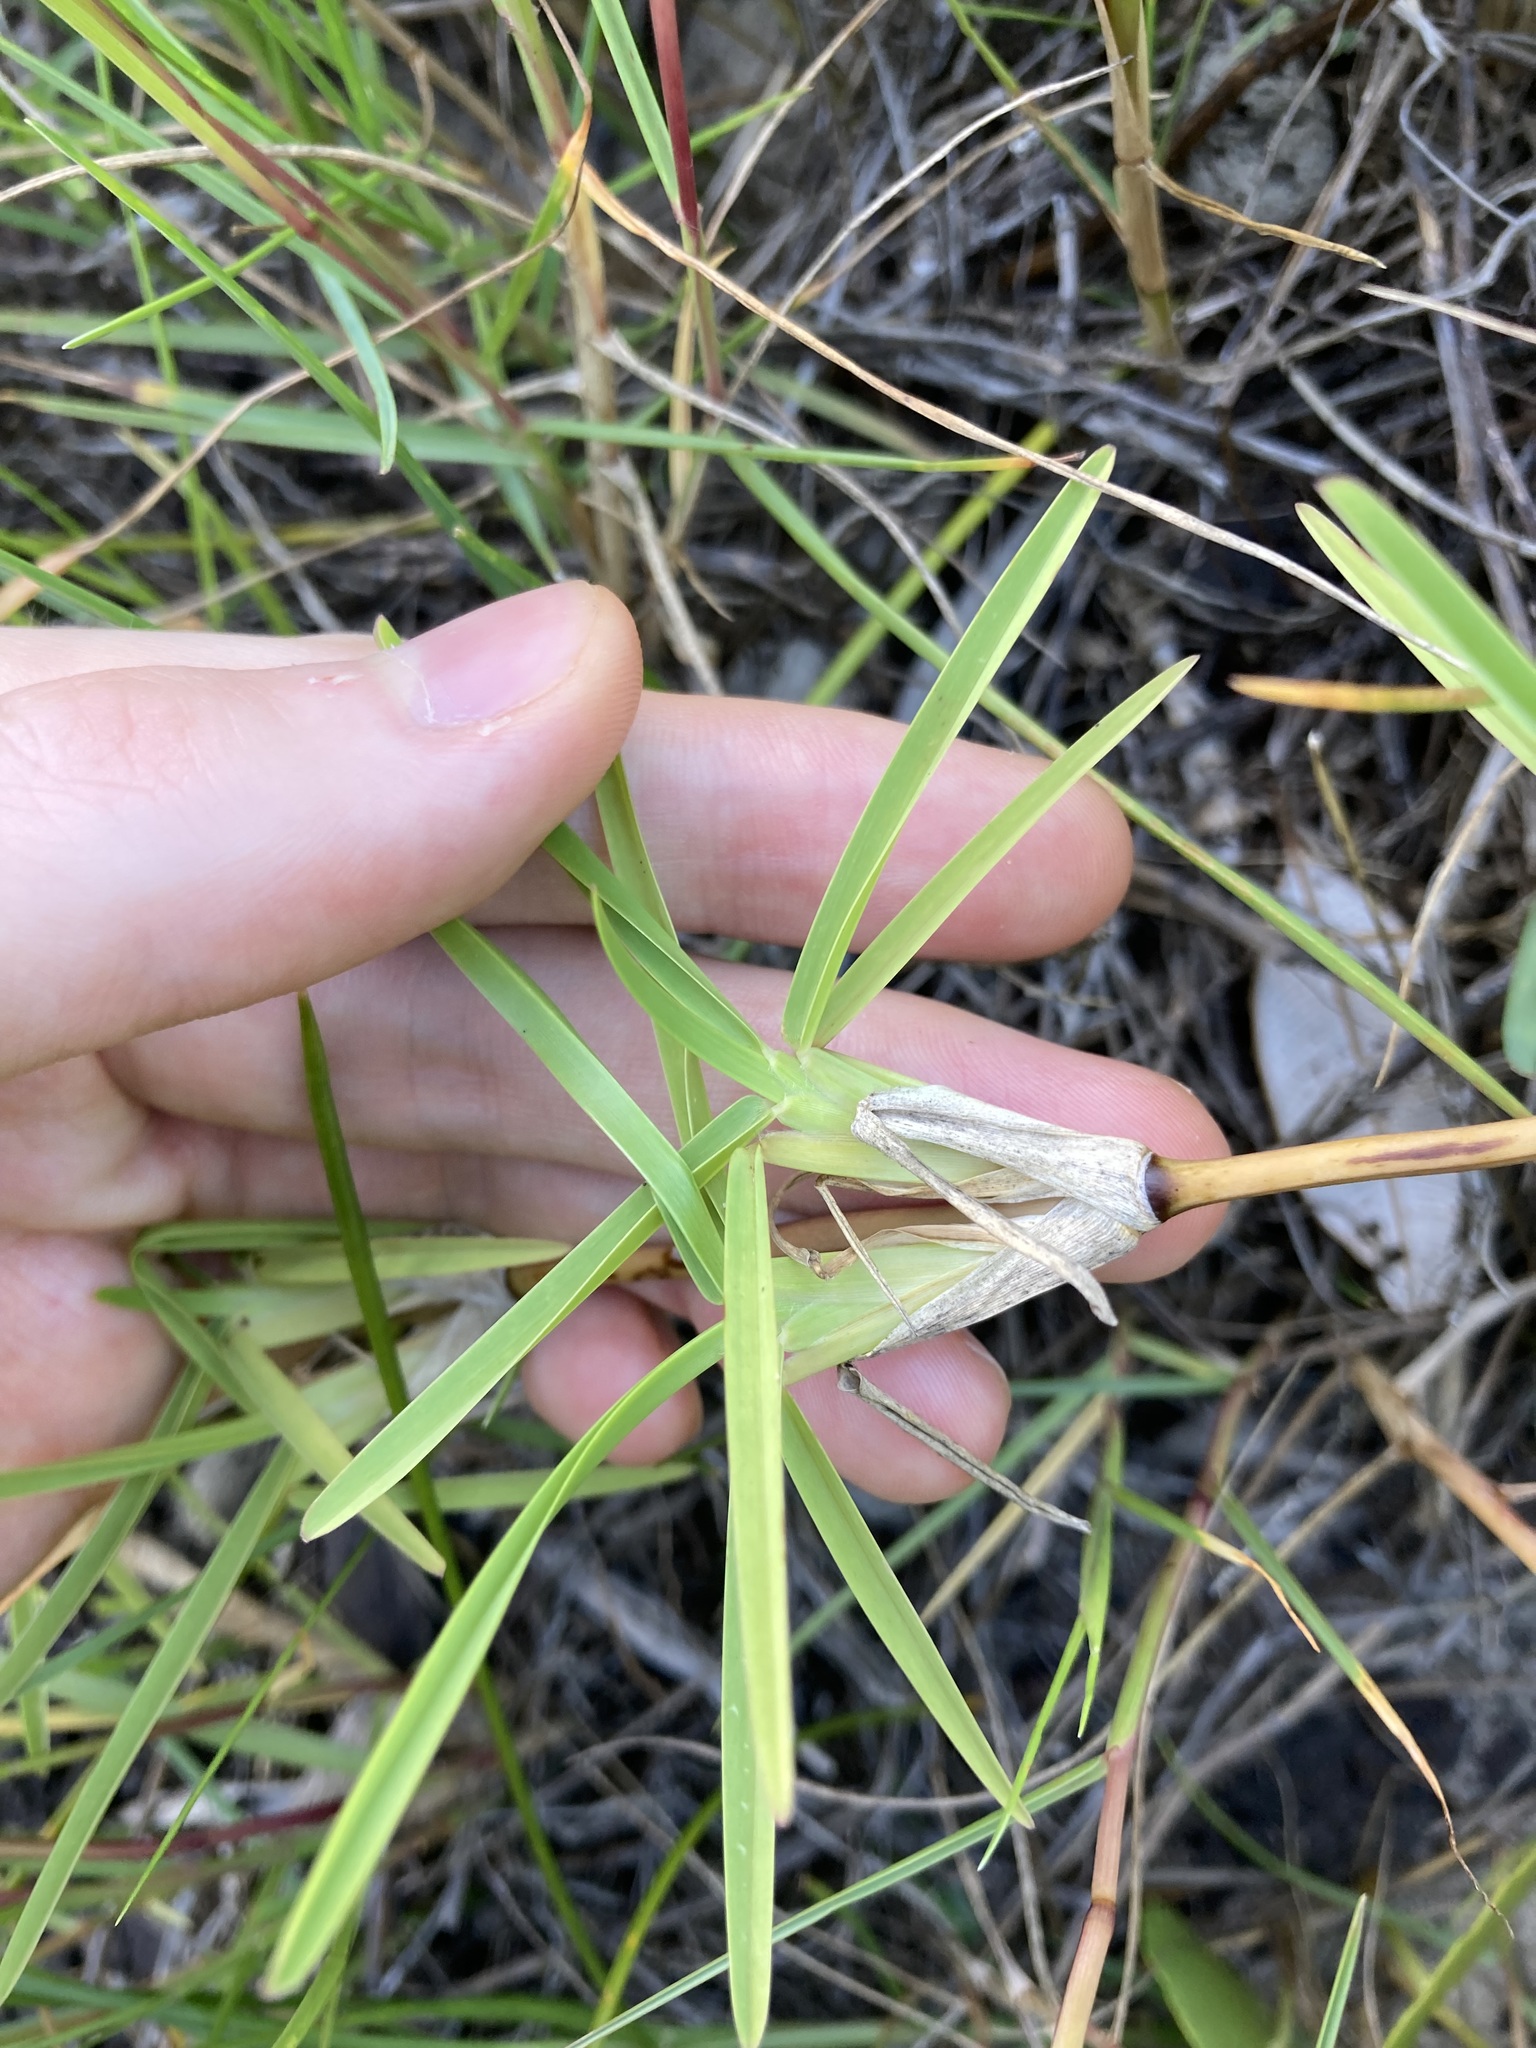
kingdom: Plantae
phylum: Tracheophyta
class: Liliopsida
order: Poales
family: Poaceae
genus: Stenotaphrum
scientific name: Stenotaphrum secundatum
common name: St. augustine grass
